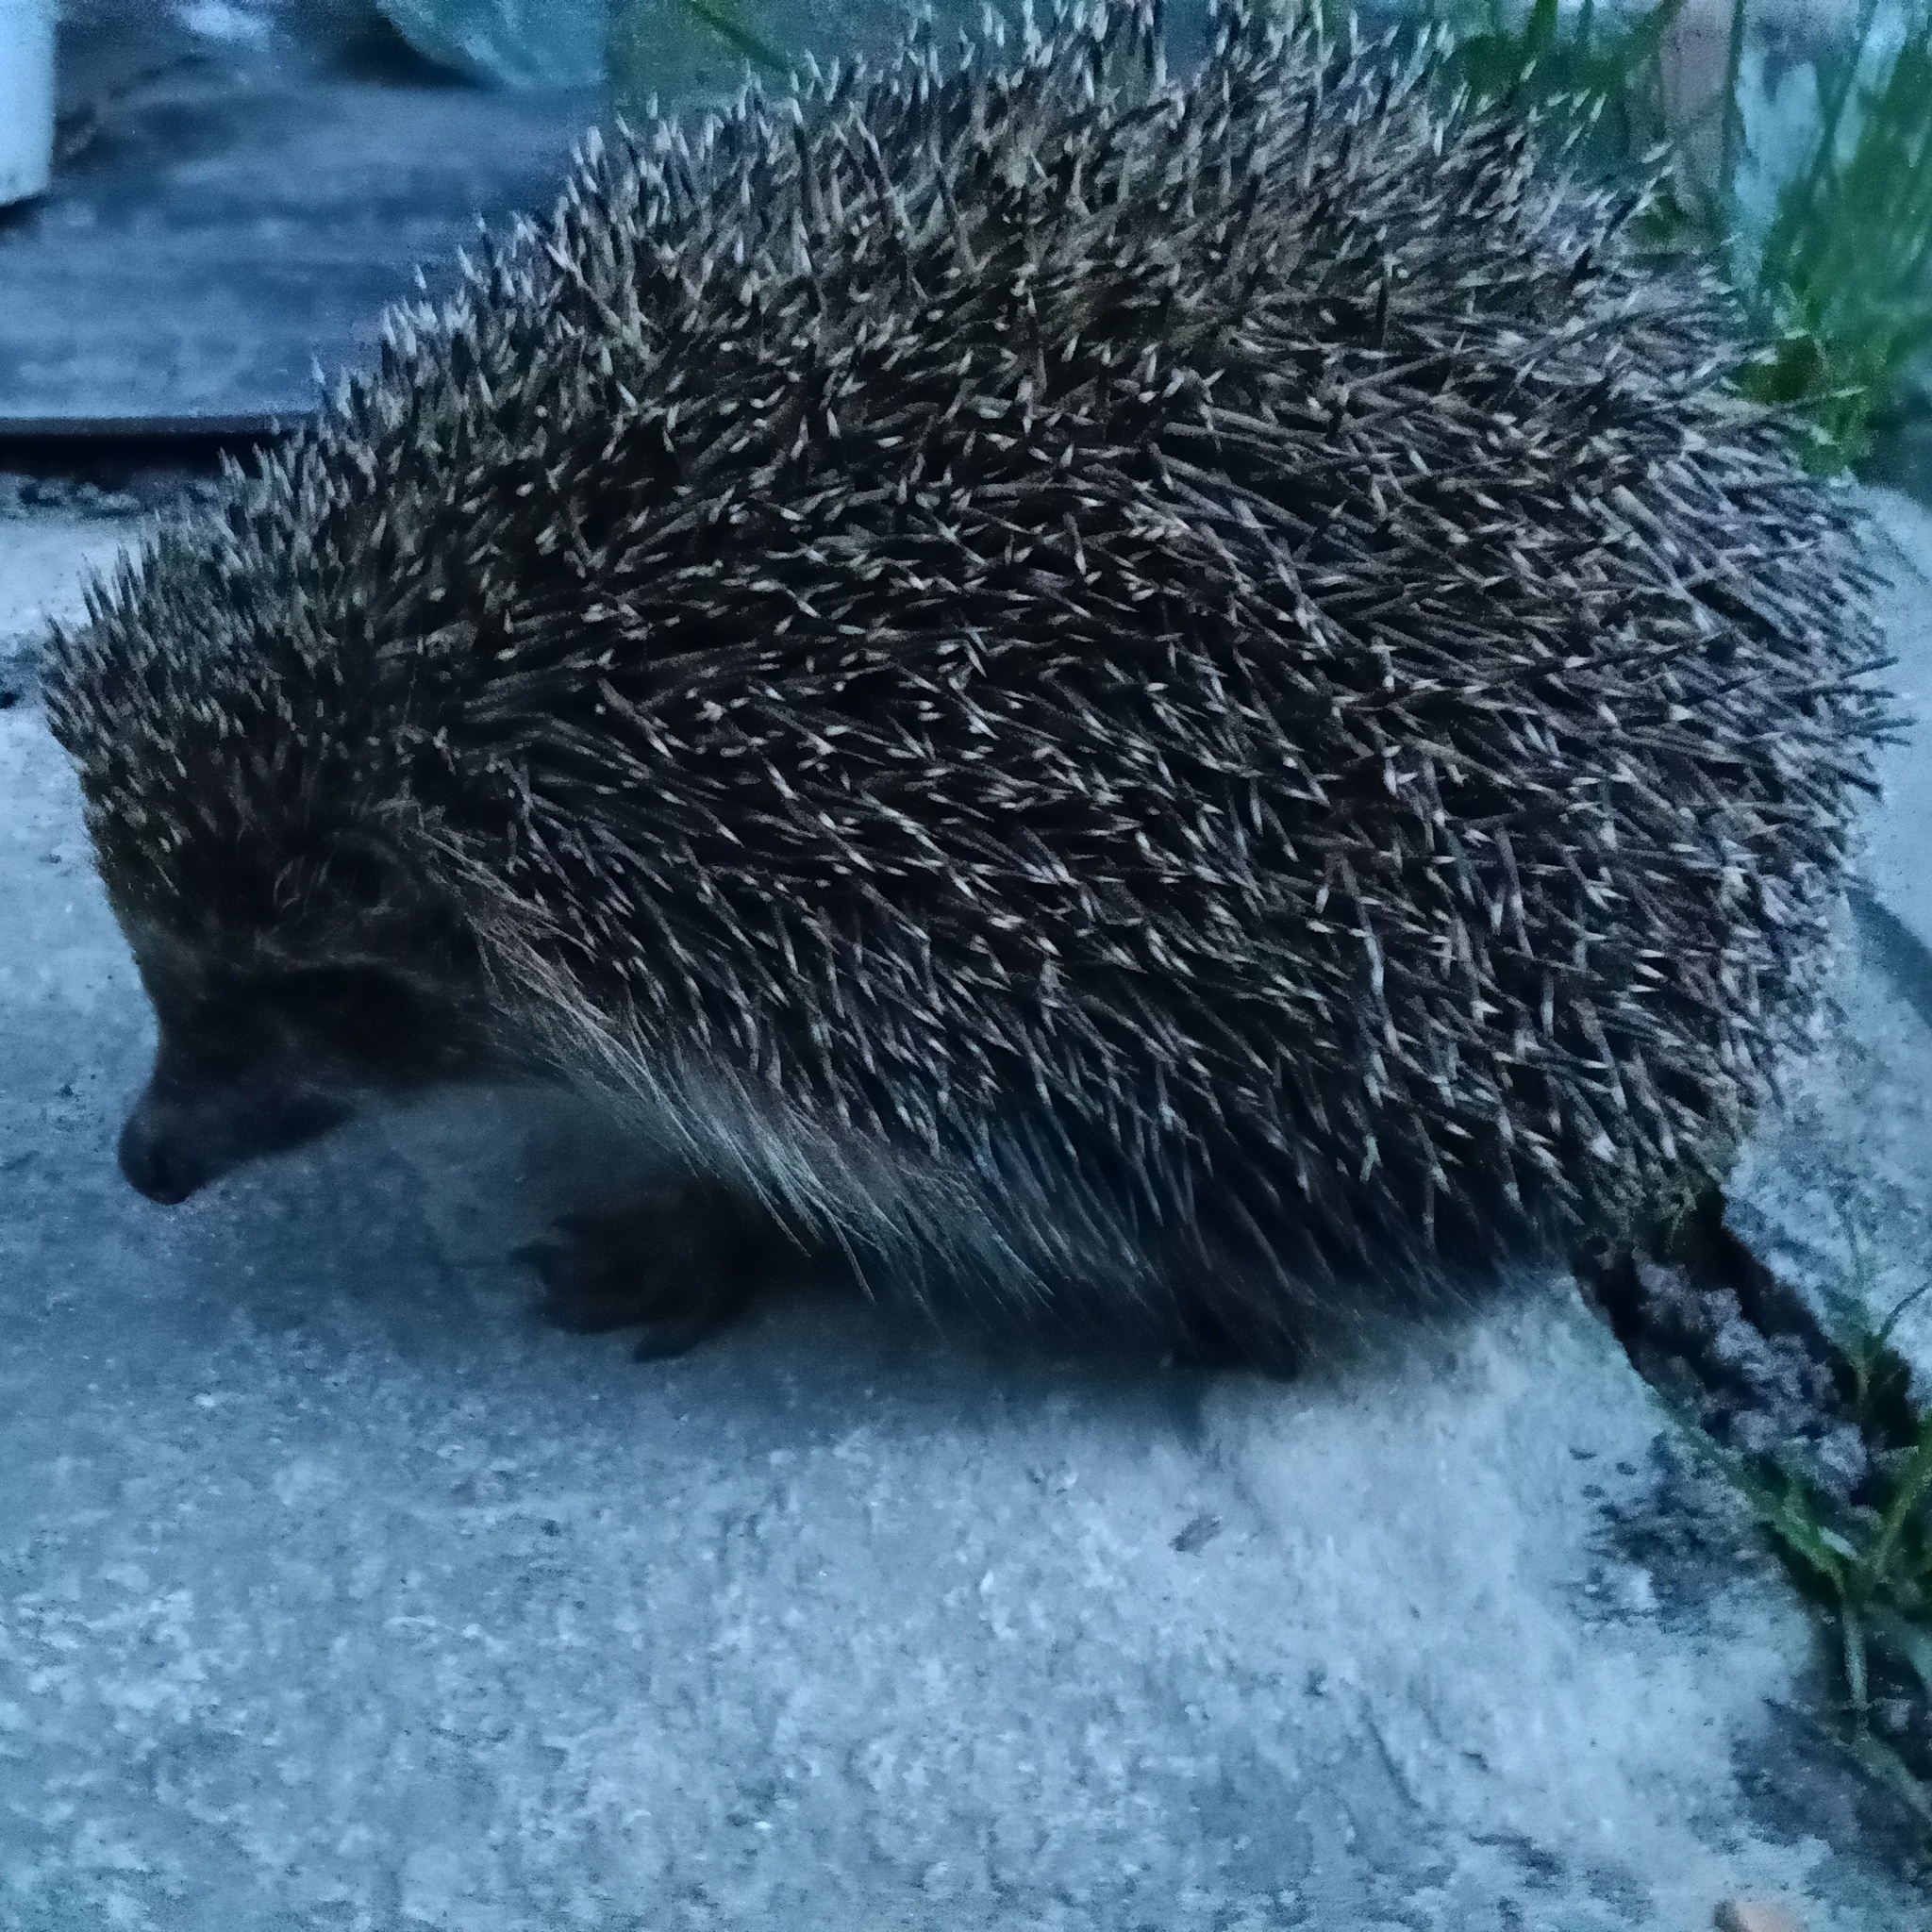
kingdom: Animalia
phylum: Chordata
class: Mammalia
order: Erinaceomorpha
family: Erinaceidae
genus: Erinaceus
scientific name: Erinaceus roumanicus
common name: Northern white-breasted hedgehog
